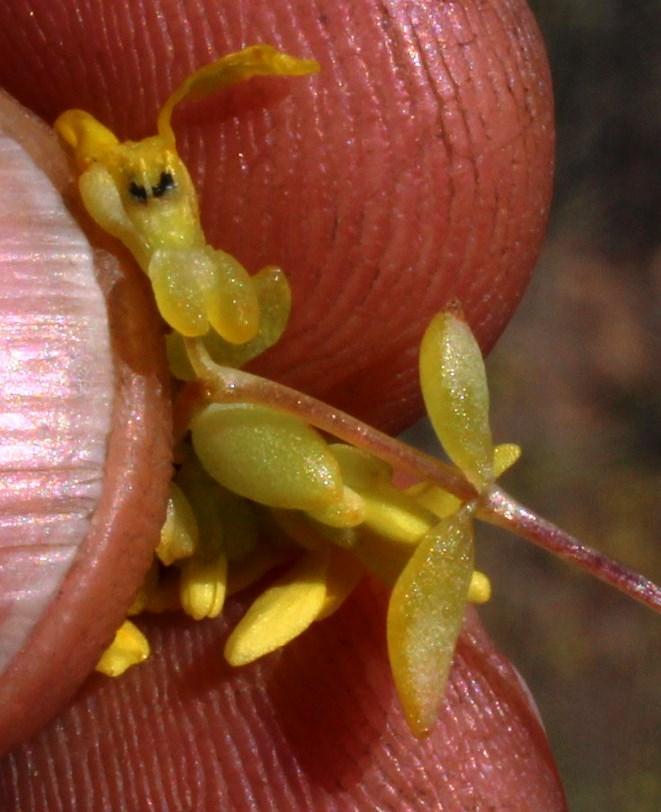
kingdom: Plantae
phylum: Tracheophyta
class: Magnoliopsida
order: Saxifragales
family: Crassulaceae
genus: Crassula
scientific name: Crassula sebaeoides
